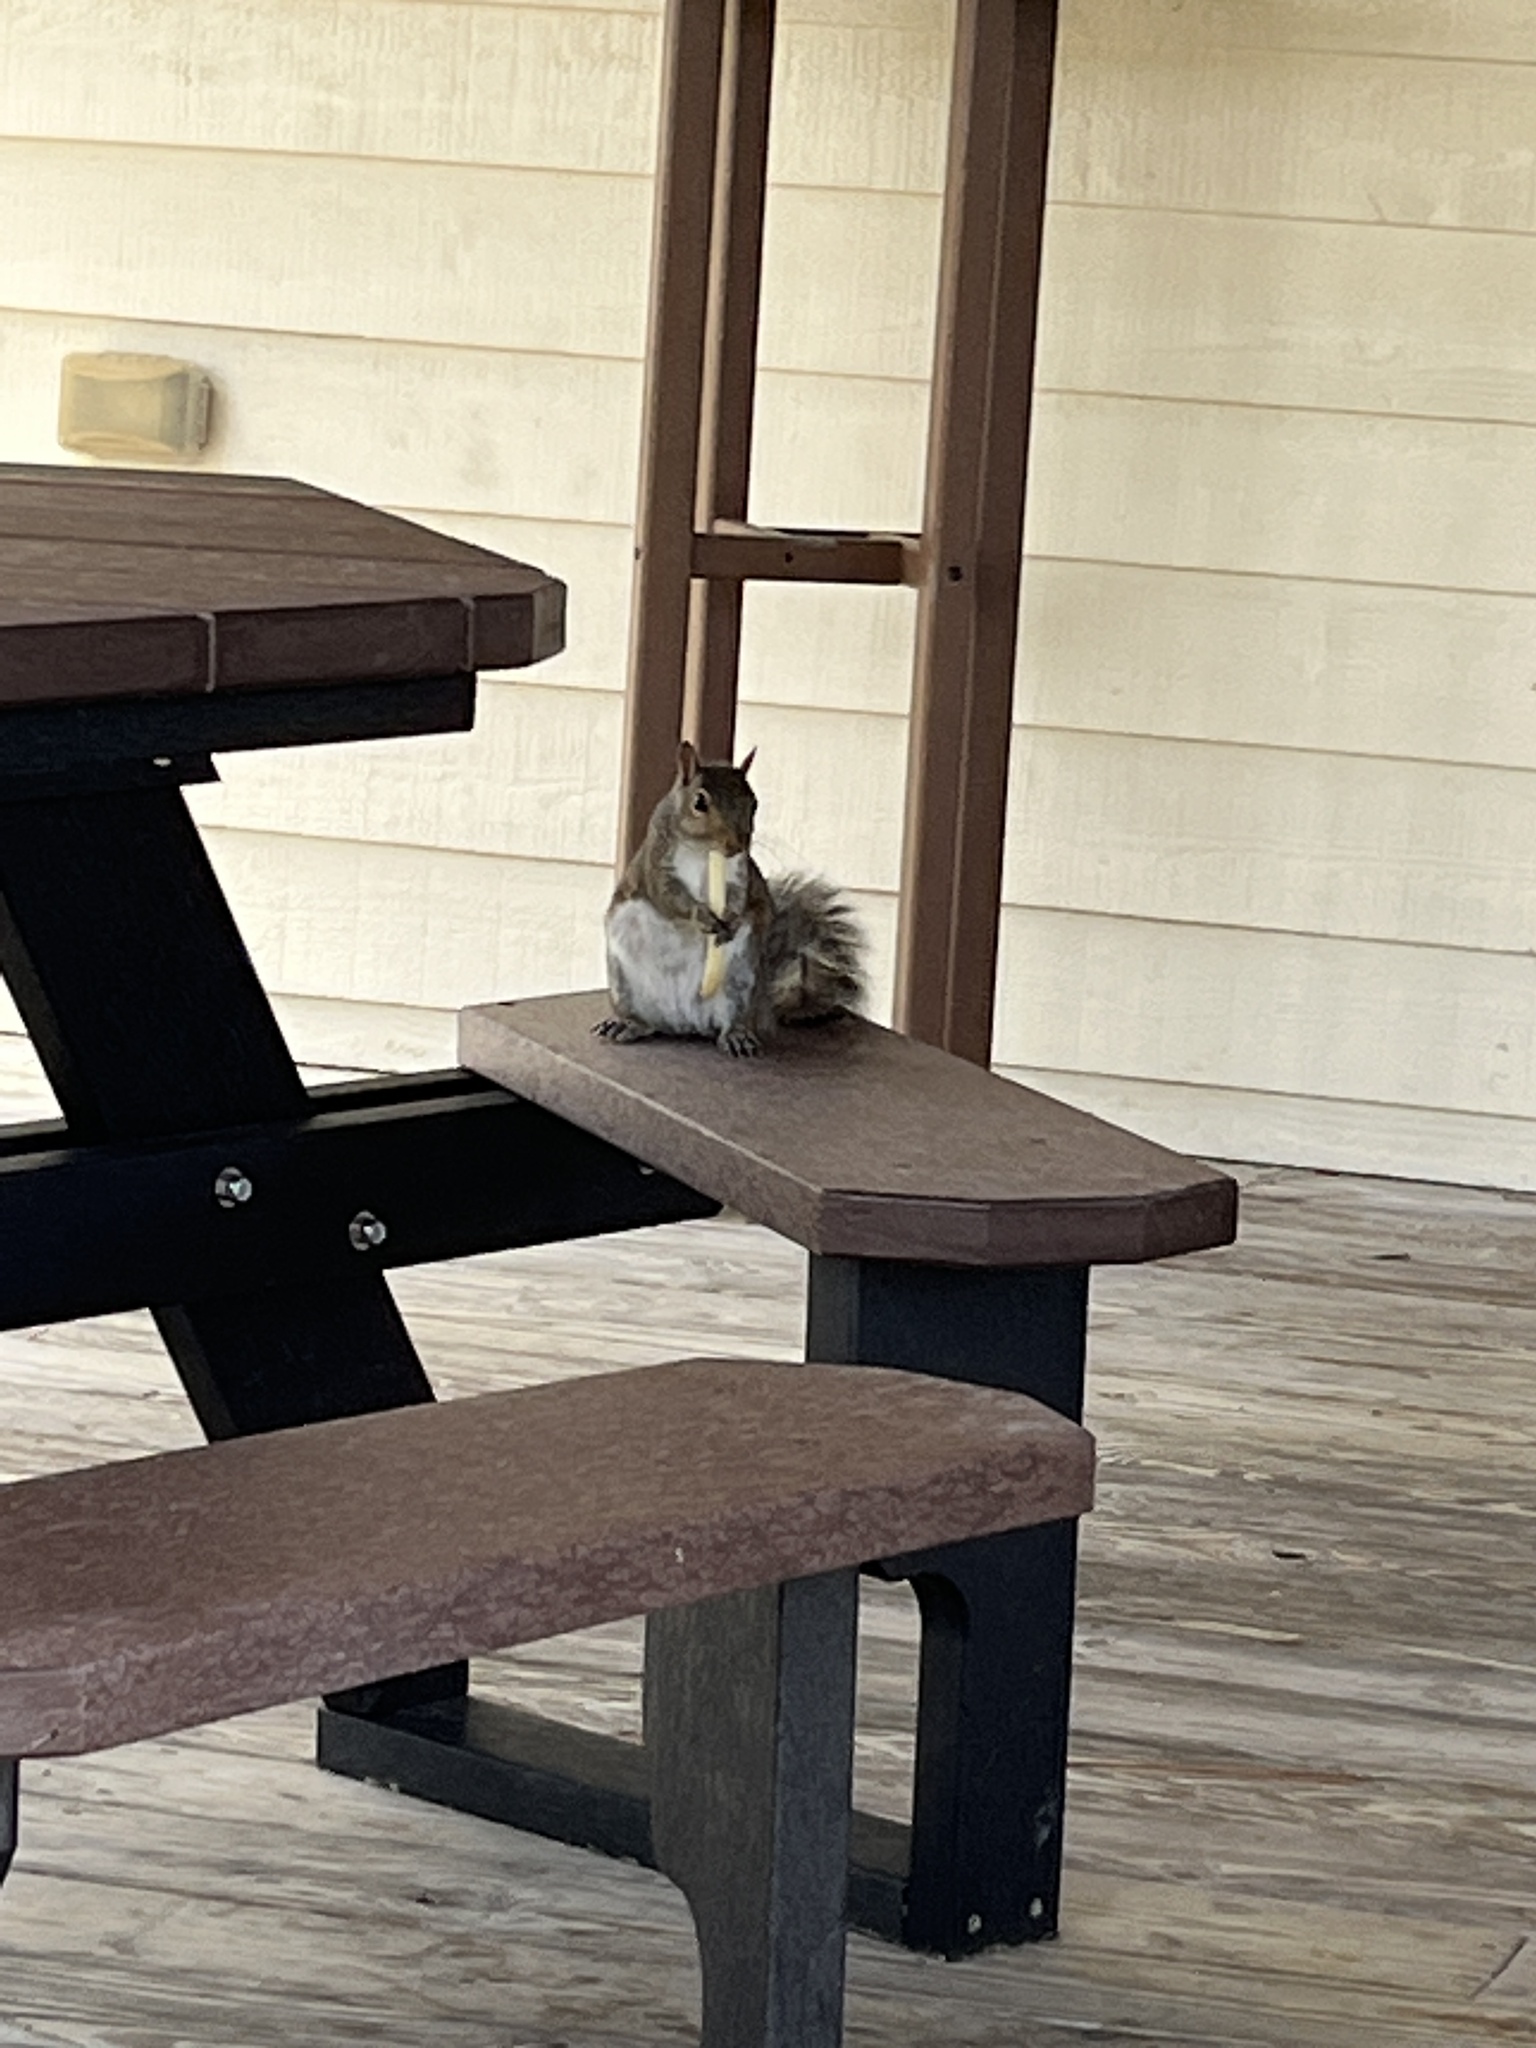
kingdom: Animalia
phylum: Chordata
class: Mammalia
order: Rodentia
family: Sciuridae
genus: Sciurus
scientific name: Sciurus carolinensis
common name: Eastern gray squirrel
